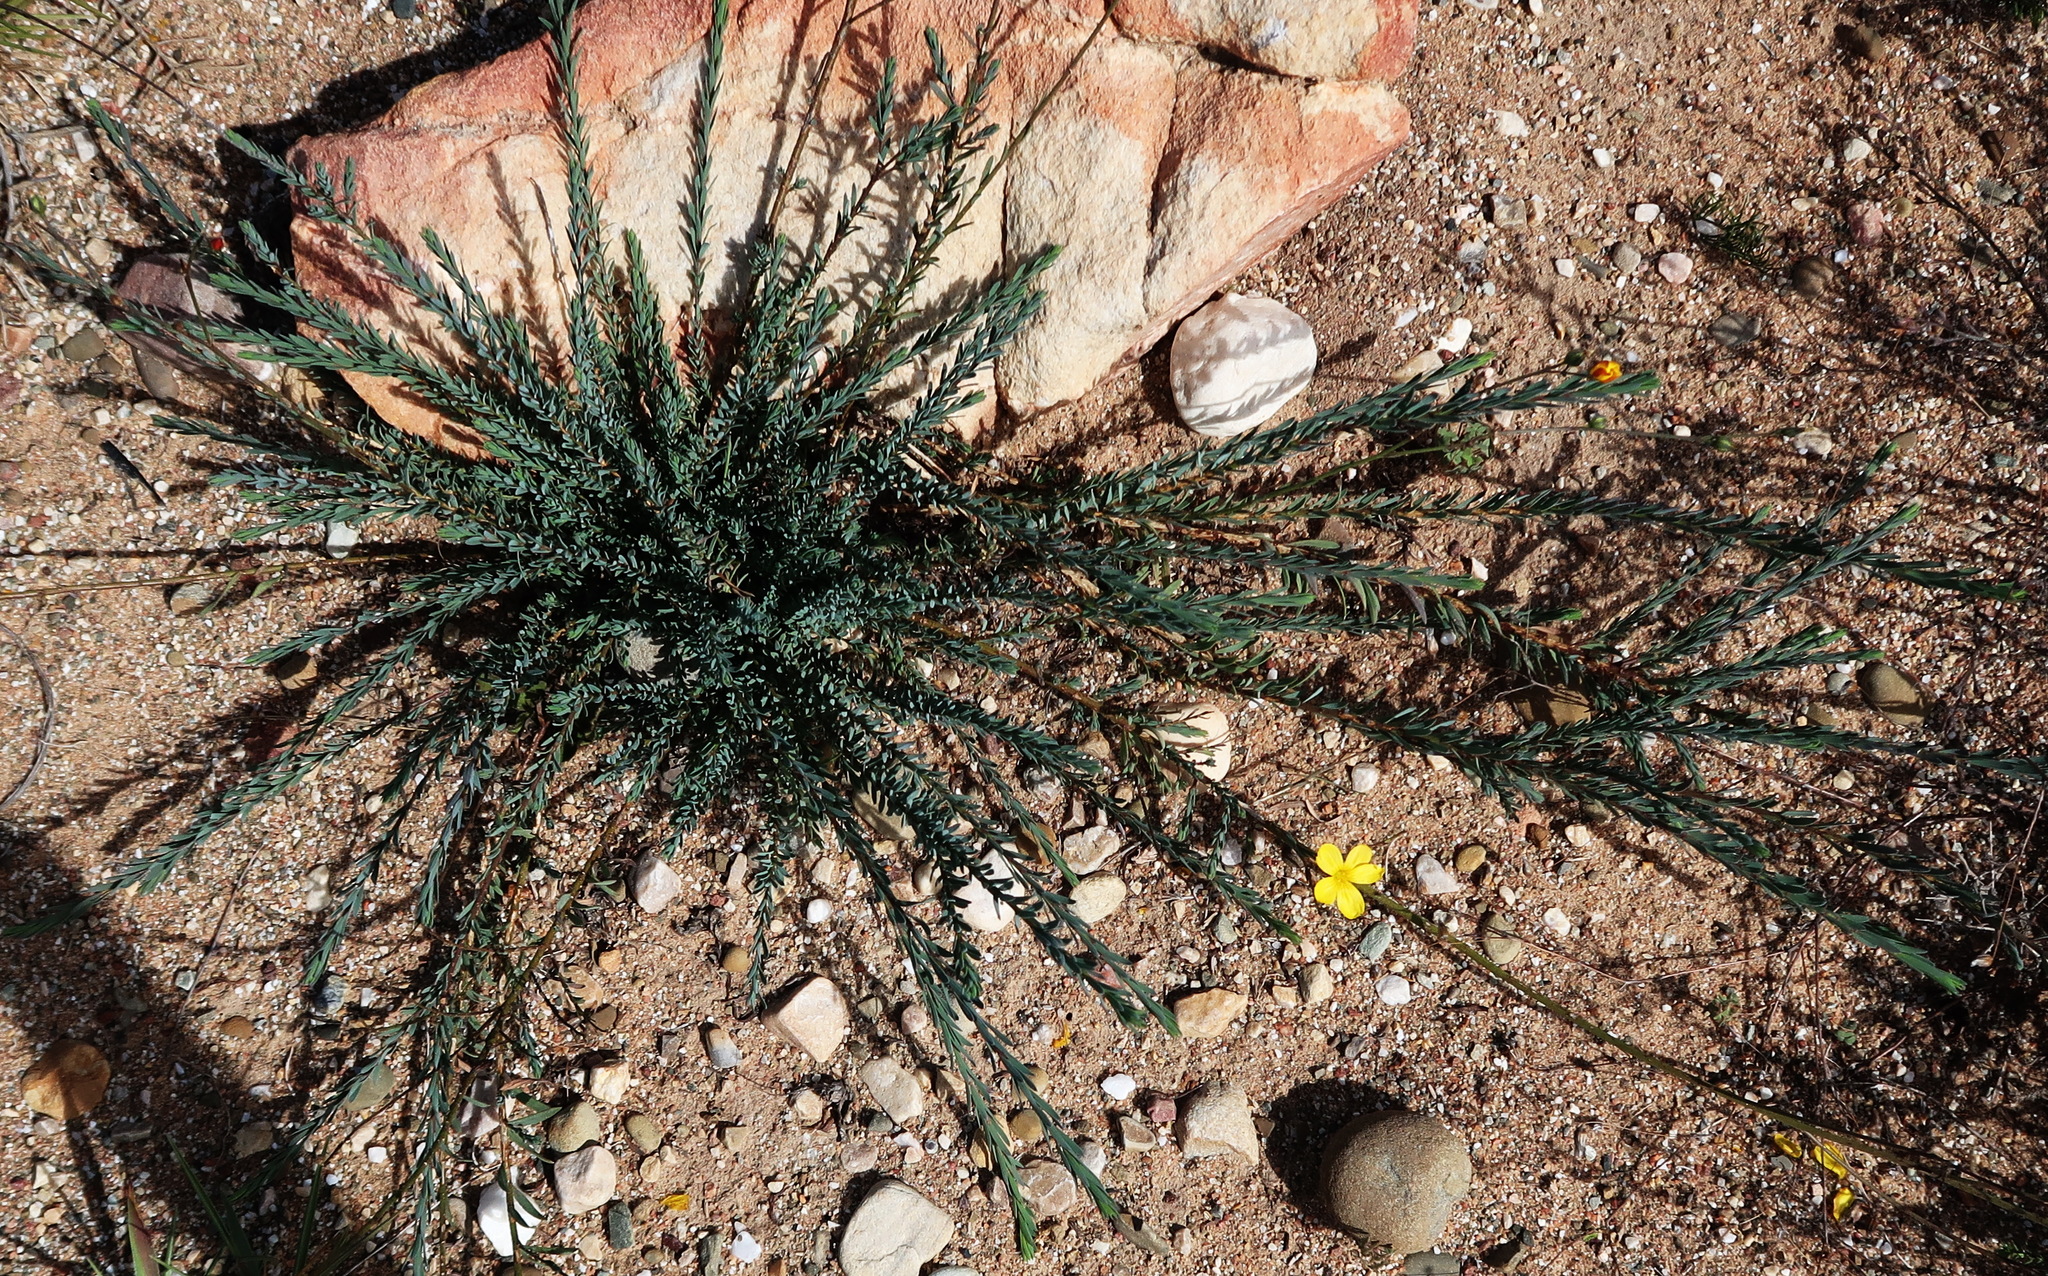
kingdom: Plantae
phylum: Tracheophyta
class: Magnoliopsida
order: Malpighiales
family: Linaceae
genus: Linum
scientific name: Linum africanum
